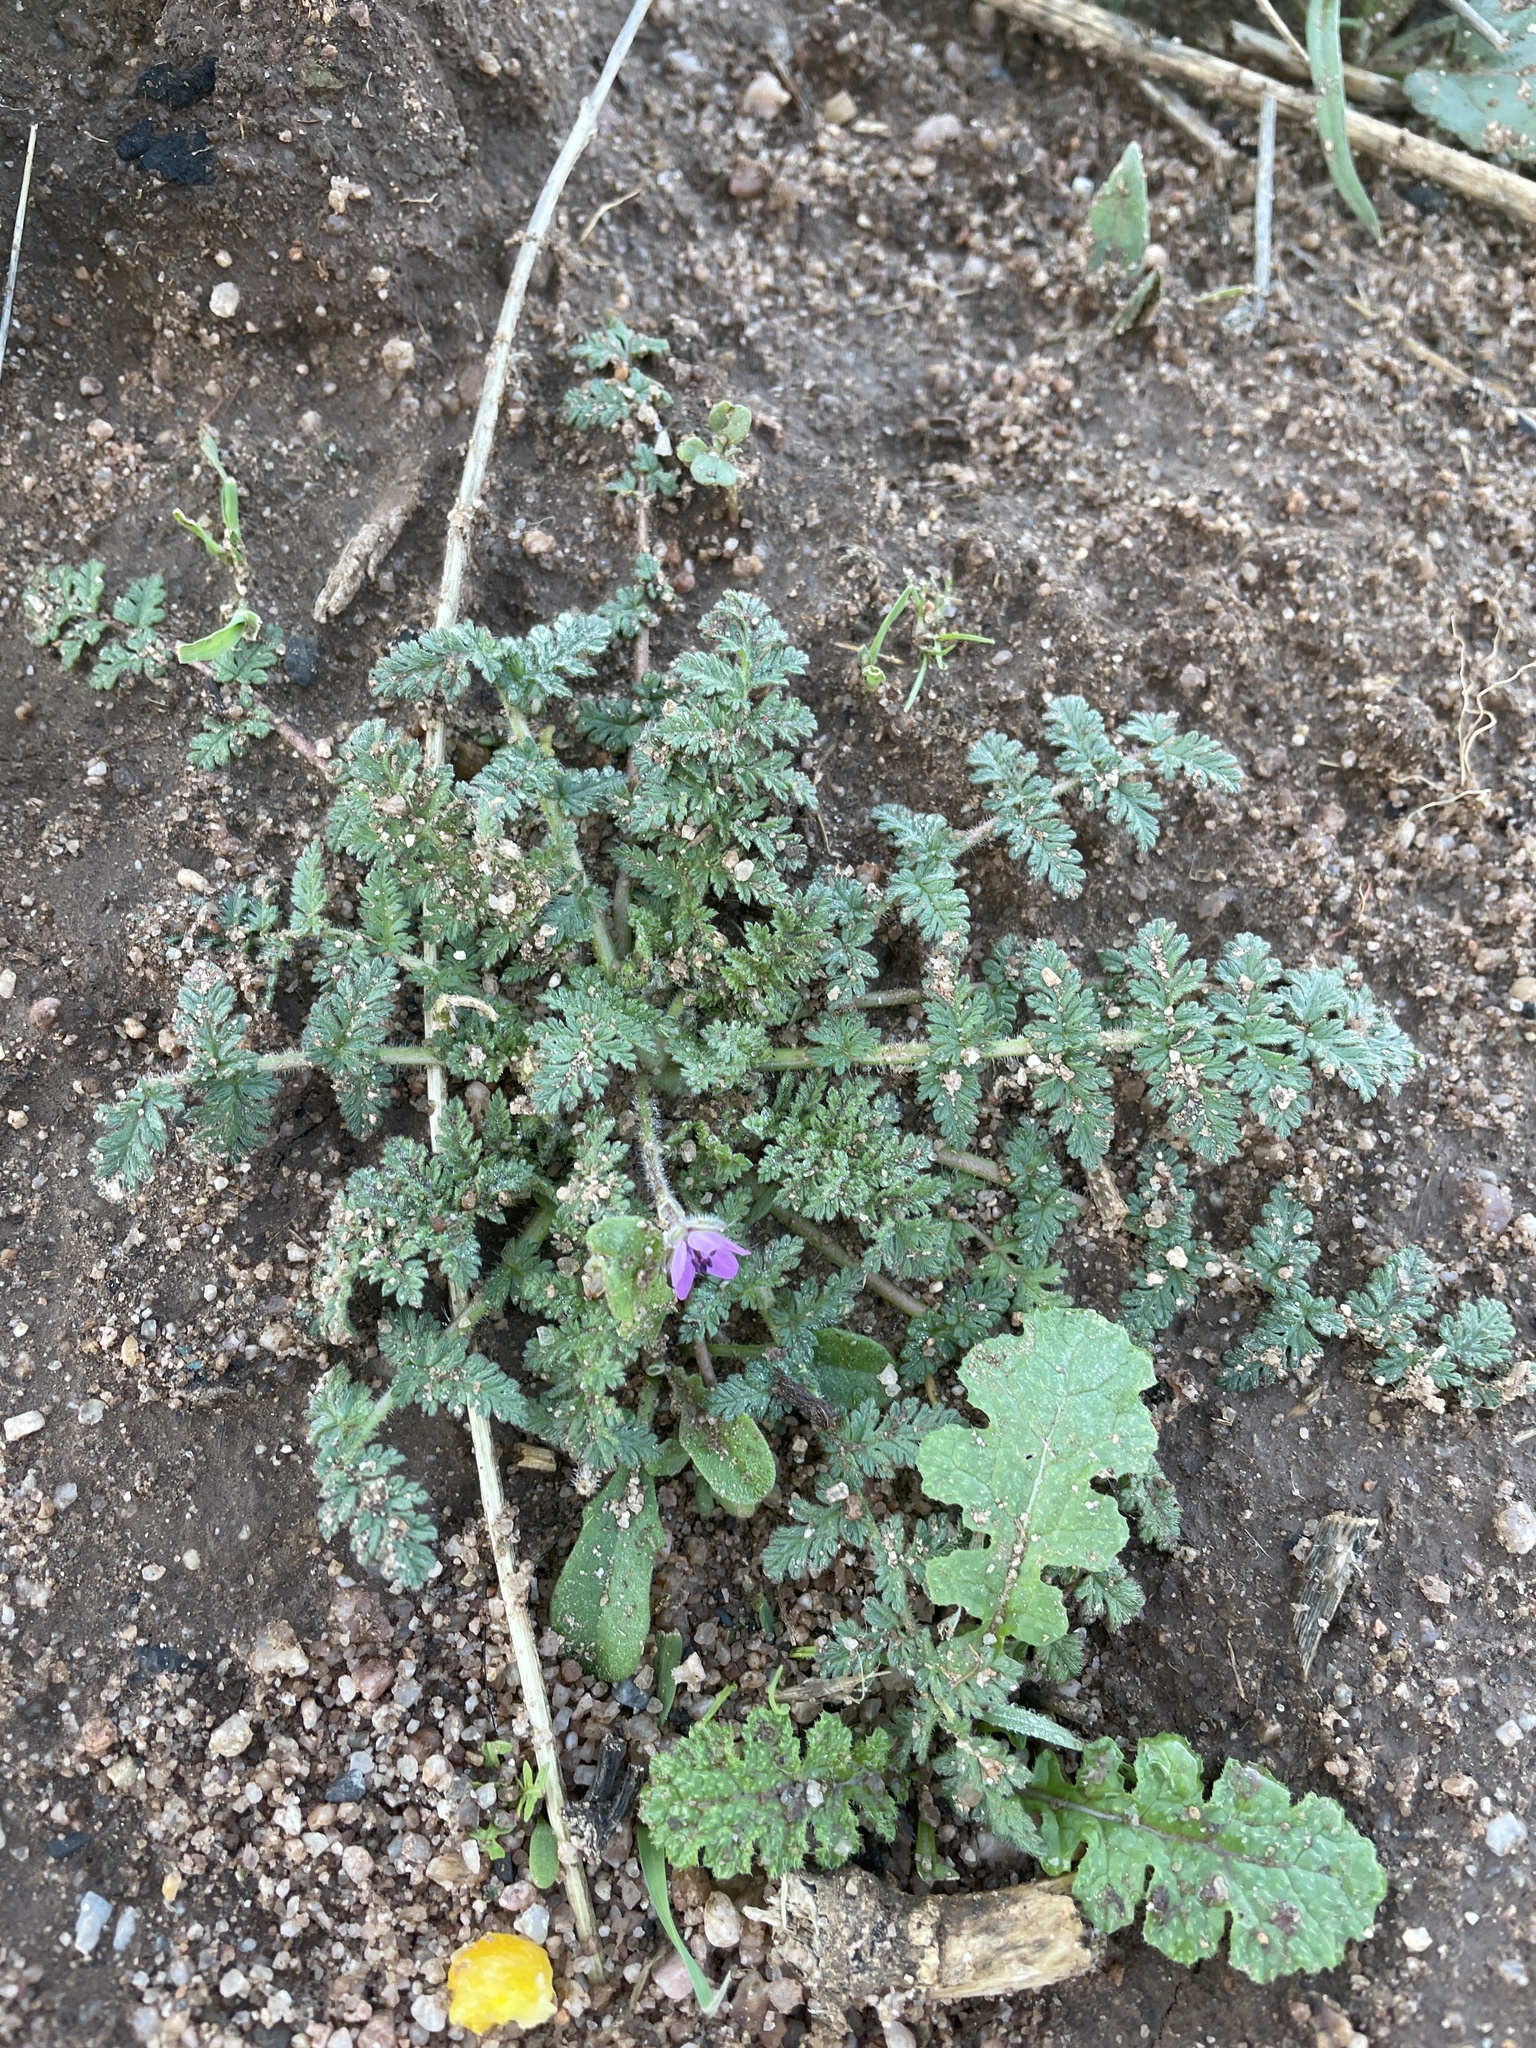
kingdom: Plantae
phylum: Tracheophyta
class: Magnoliopsida
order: Geraniales
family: Geraniaceae
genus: Erodium
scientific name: Erodium cicutarium
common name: Common stork's-bill
